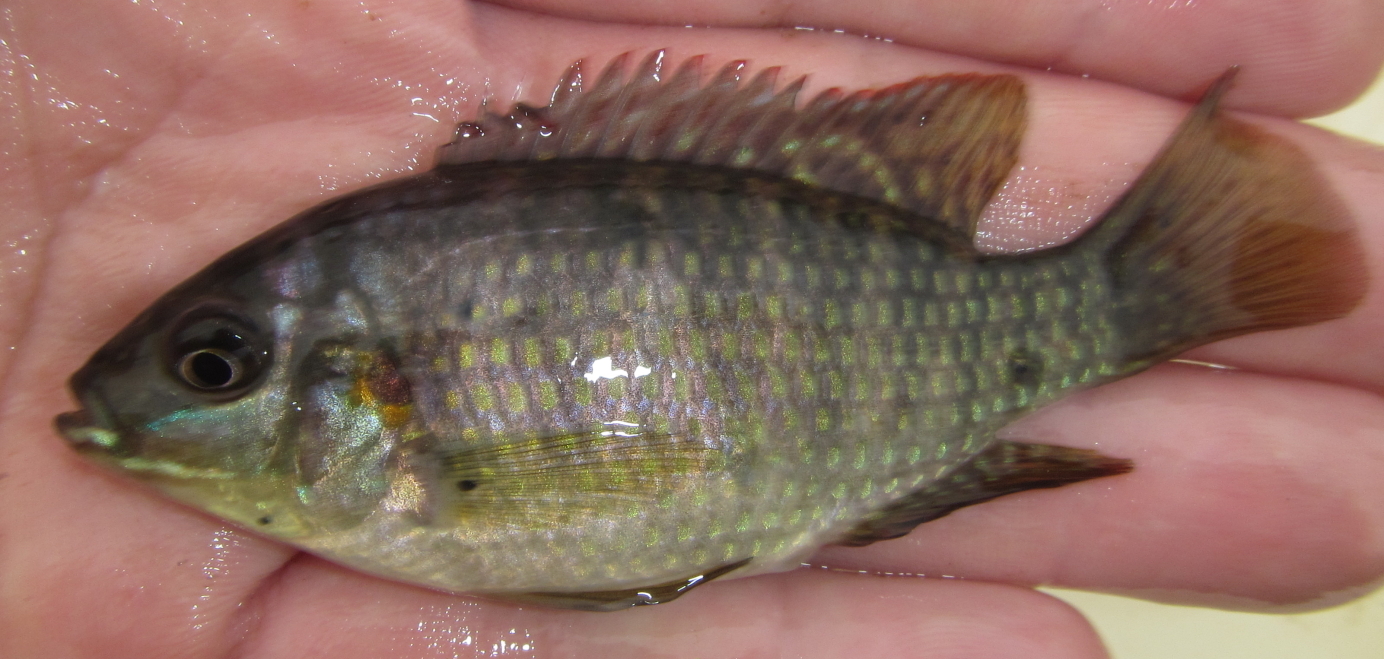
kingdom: Animalia
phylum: Chordata
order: Perciformes
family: Cichlidae
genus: Tilapia
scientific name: Tilapia sparrmanii
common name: Banded tilapia
